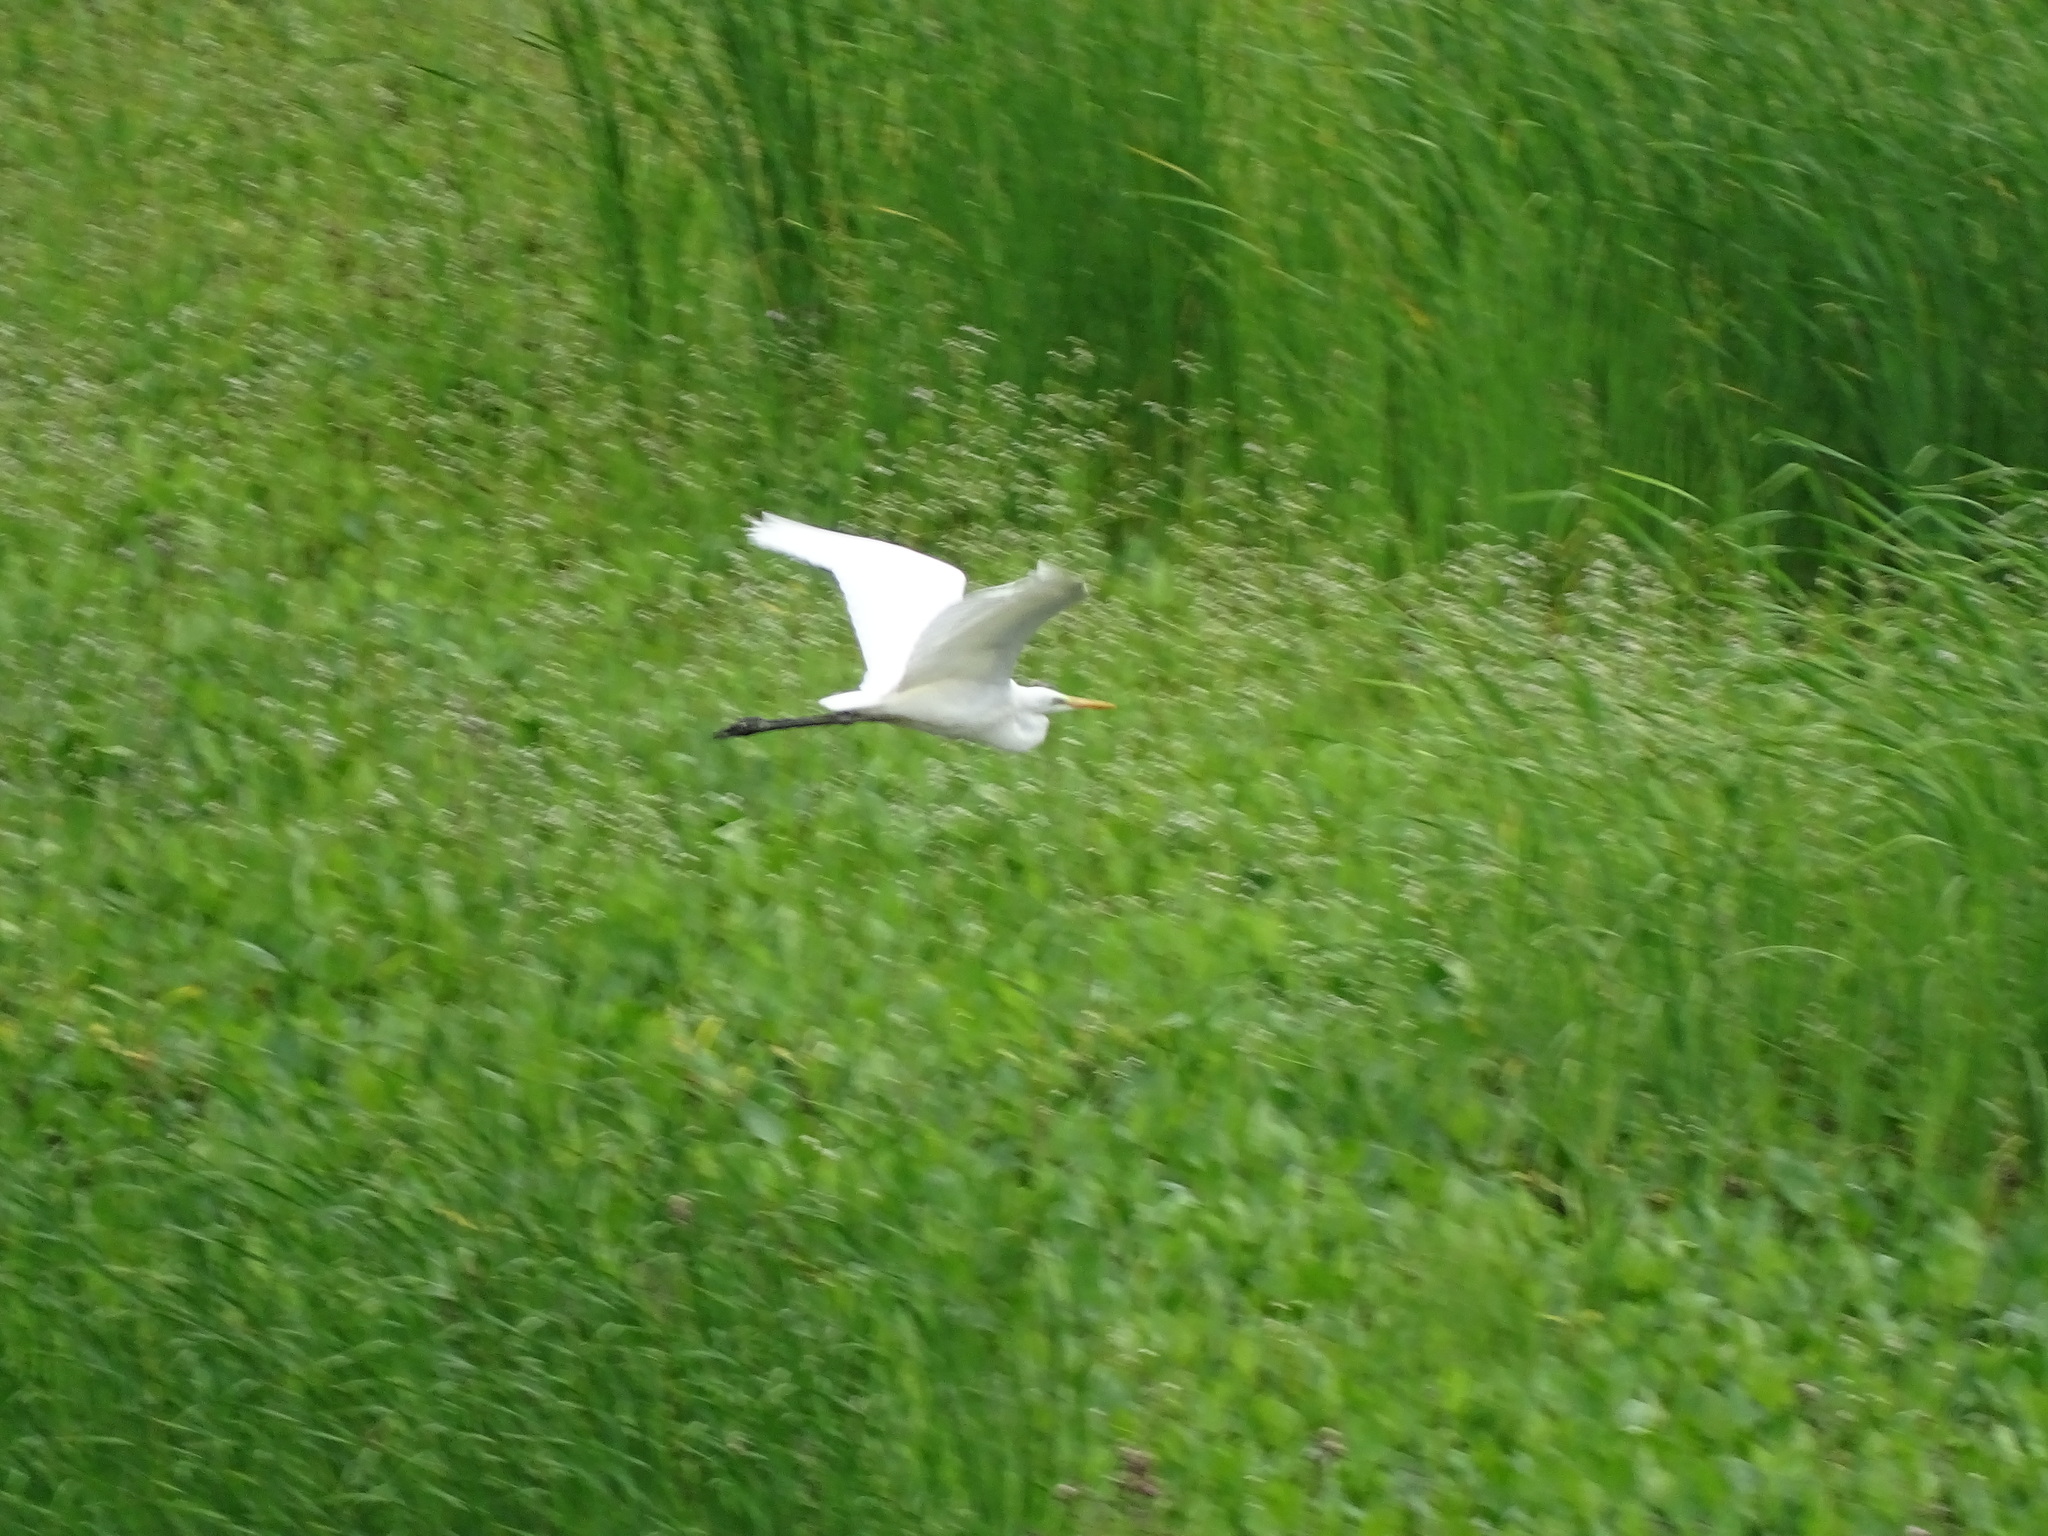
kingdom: Animalia
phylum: Chordata
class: Aves
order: Pelecaniformes
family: Ardeidae
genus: Ardea
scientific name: Ardea alba
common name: Great egret
